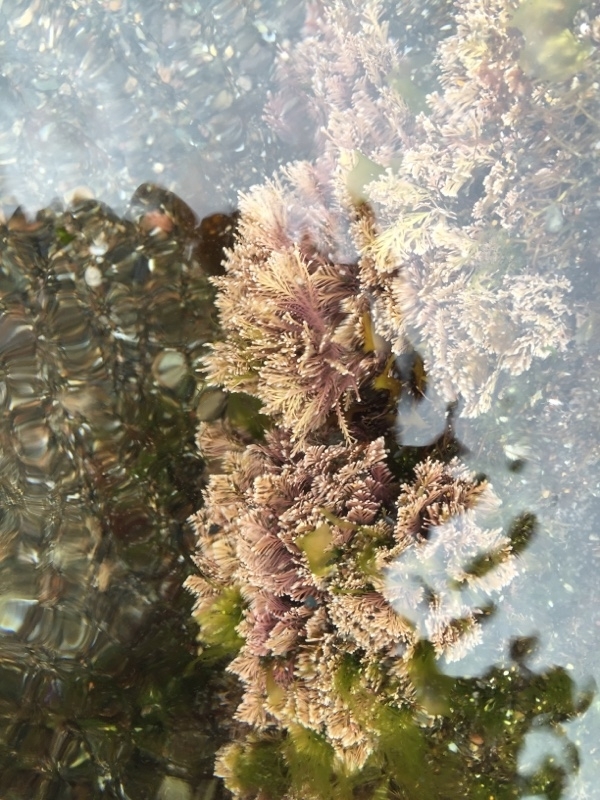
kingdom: Plantae
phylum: Rhodophyta
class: Florideophyceae
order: Corallinales
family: Corallinaceae
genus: Corallina
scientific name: Corallina officinalis
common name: Coral weed
